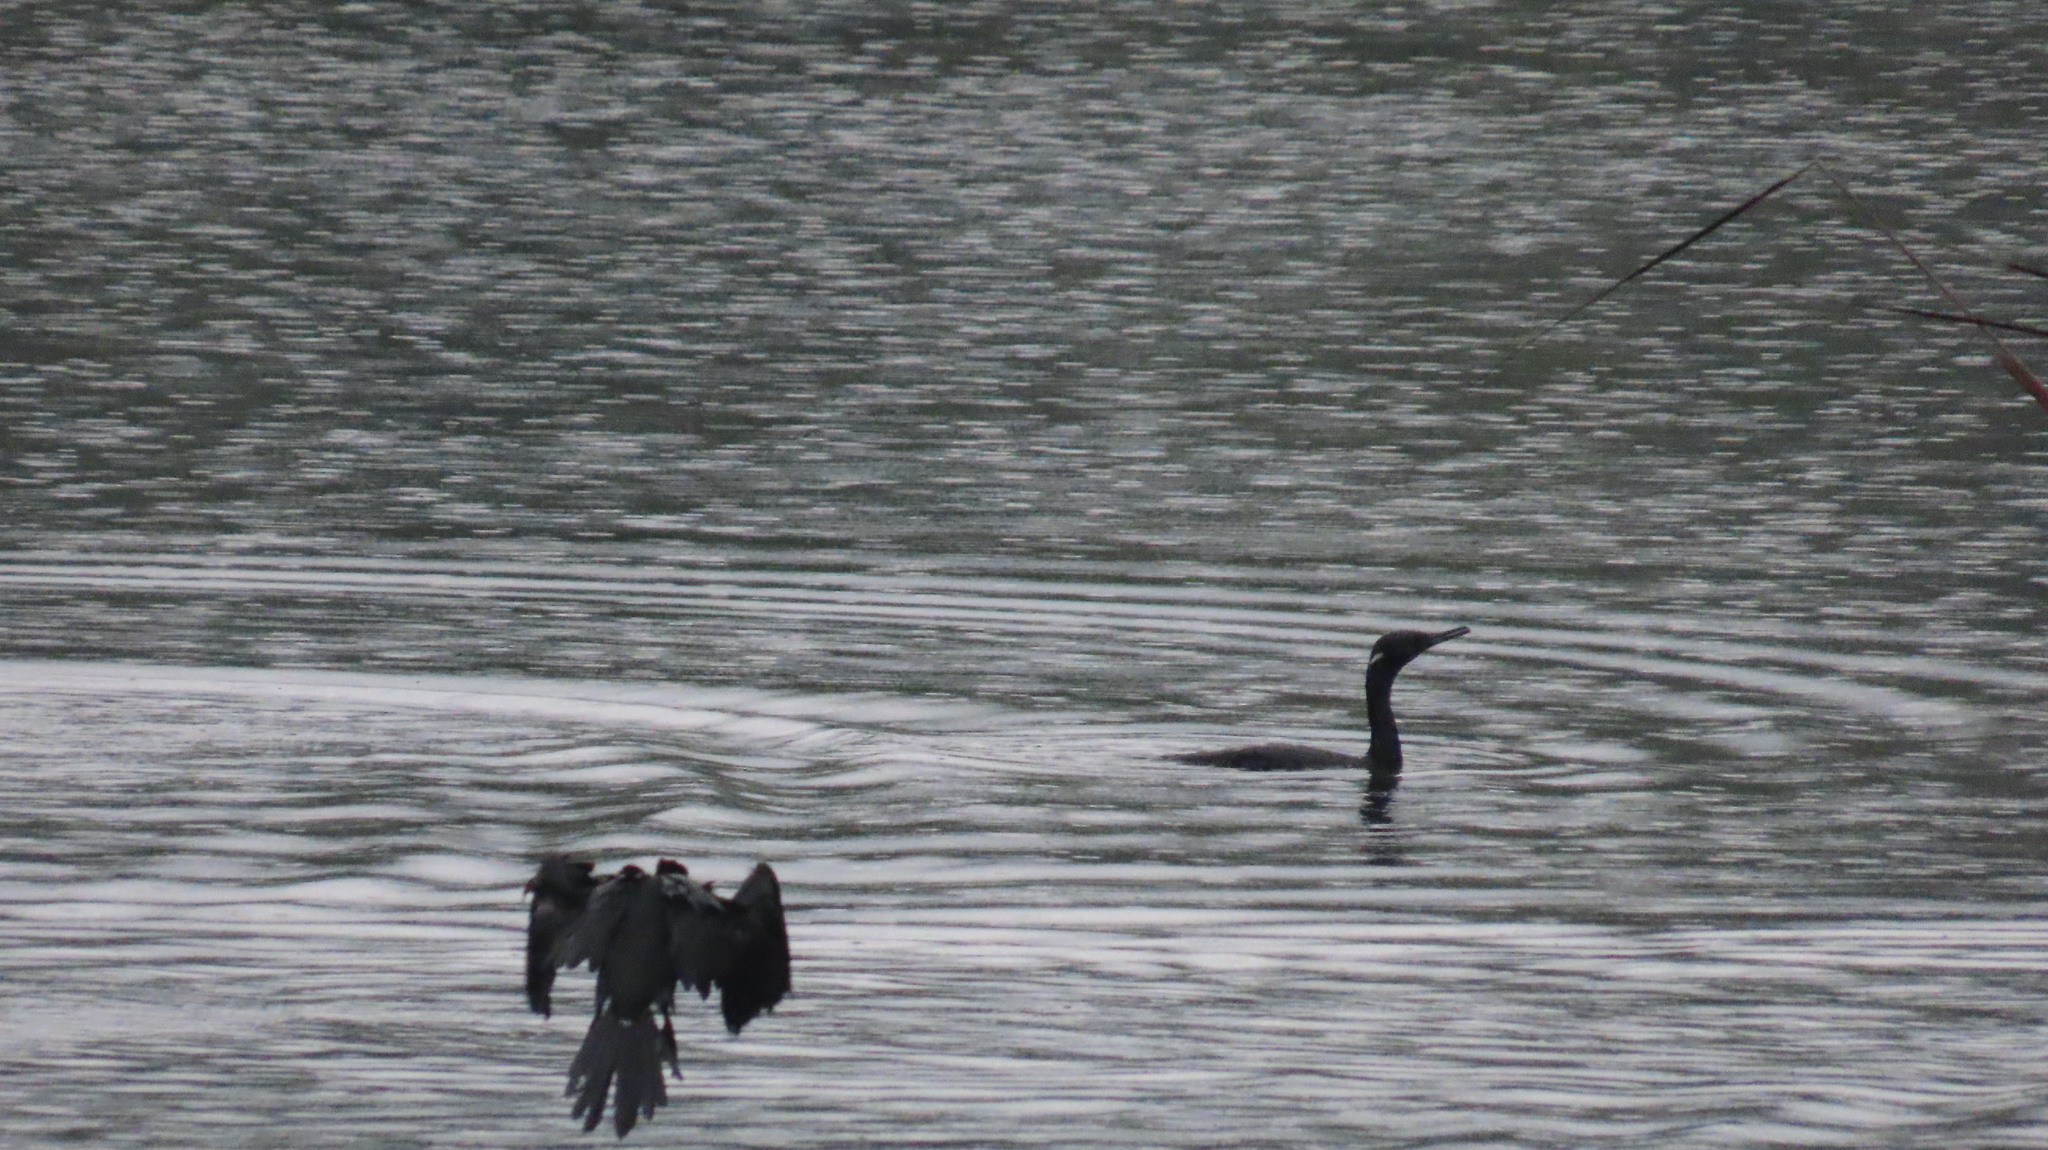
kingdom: Animalia
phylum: Chordata
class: Aves
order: Suliformes
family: Phalacrocoracidae
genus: Phalacrocorax
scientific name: Phalacrocorax fuscicollis
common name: Indian cormorant
